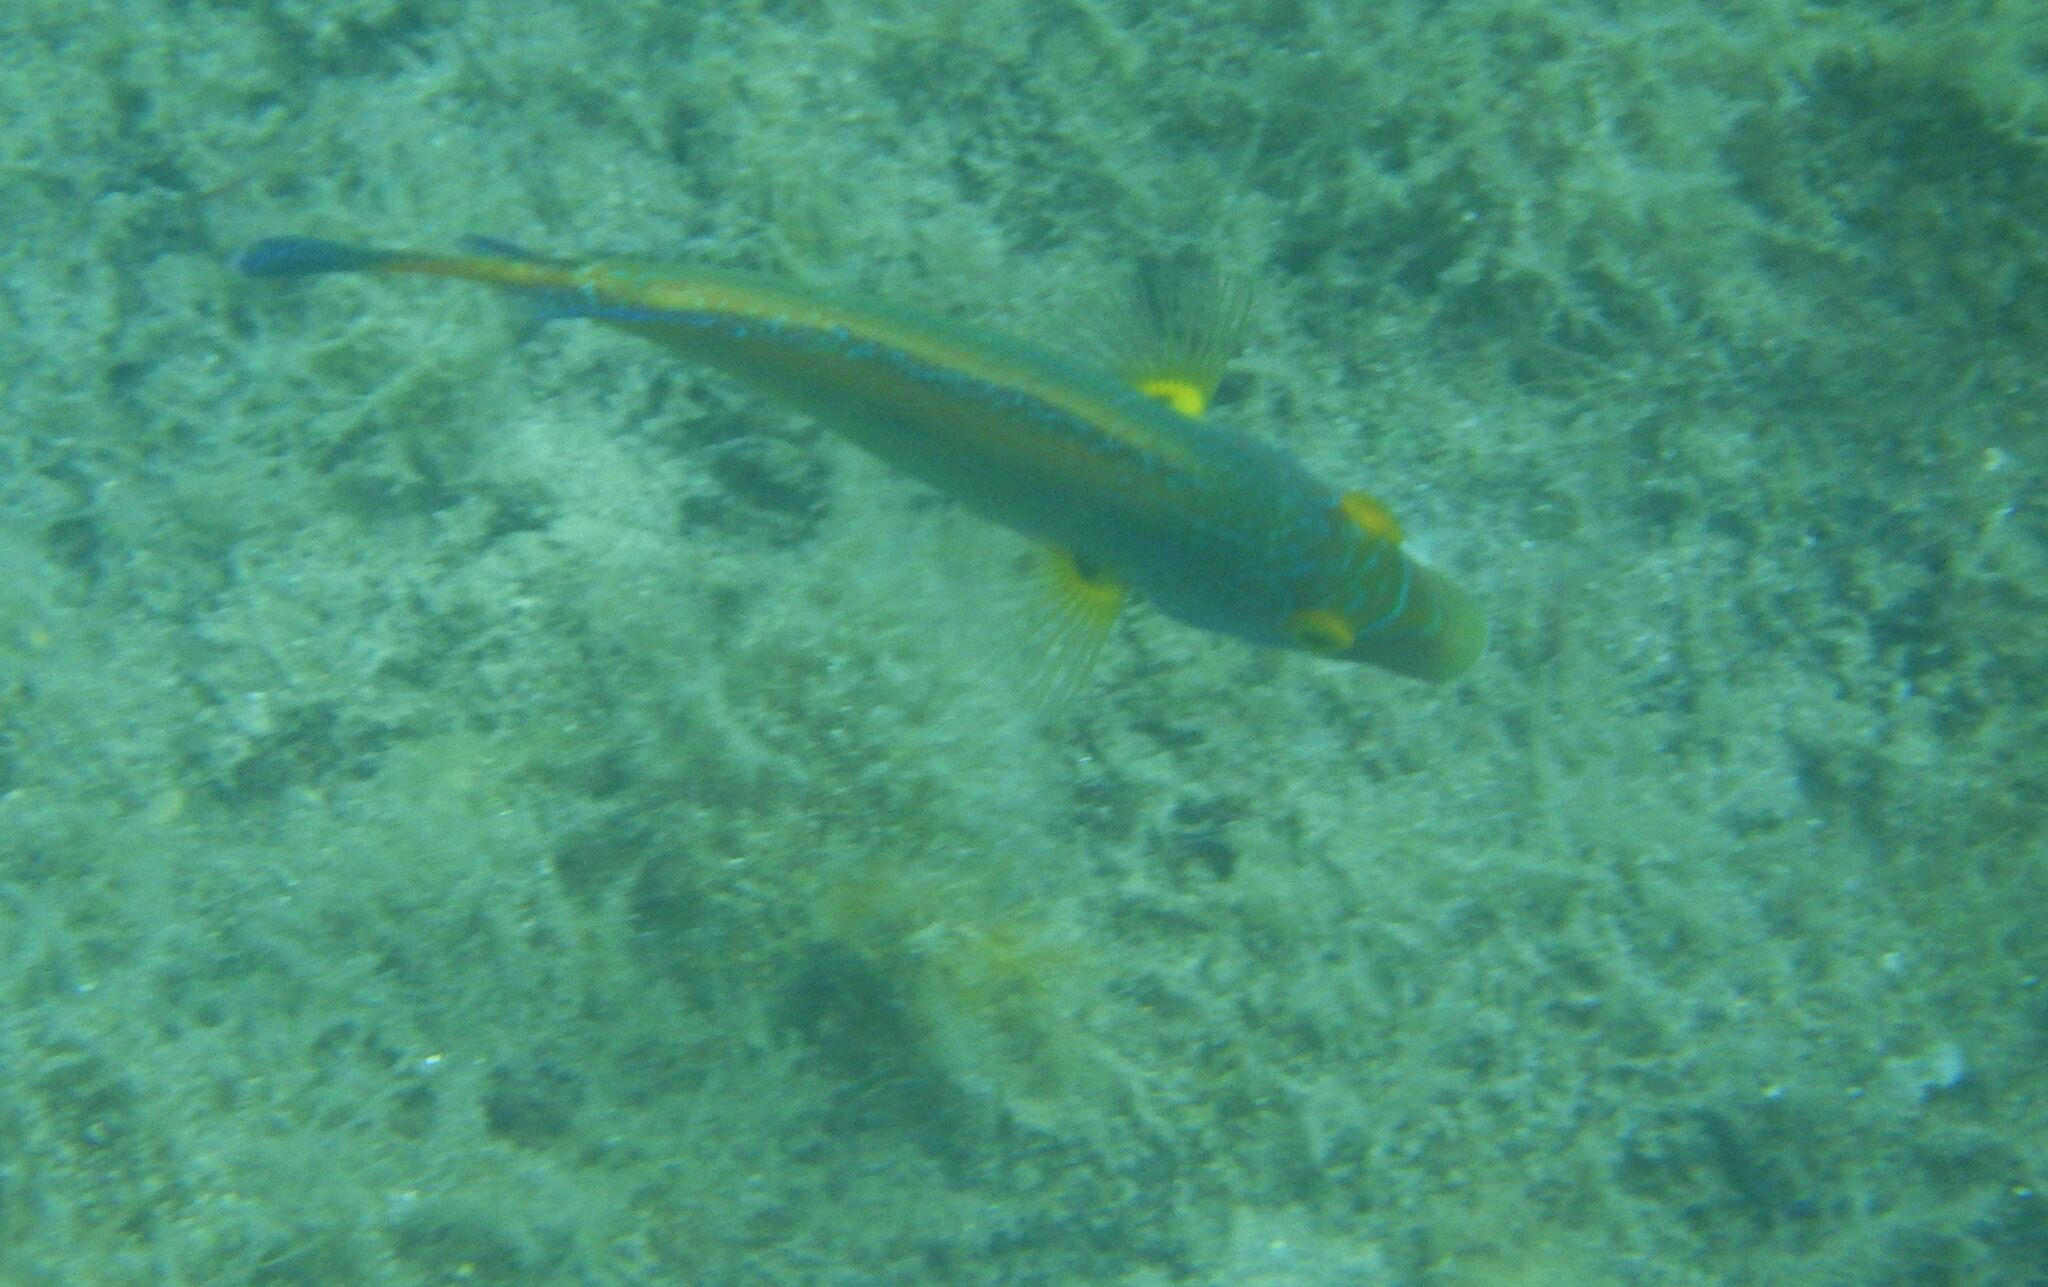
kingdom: Animalia
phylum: Chordata
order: Perciformes
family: Labridae
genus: Symphodus
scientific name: Symphodus mediterraneus
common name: Axillary wrasse
